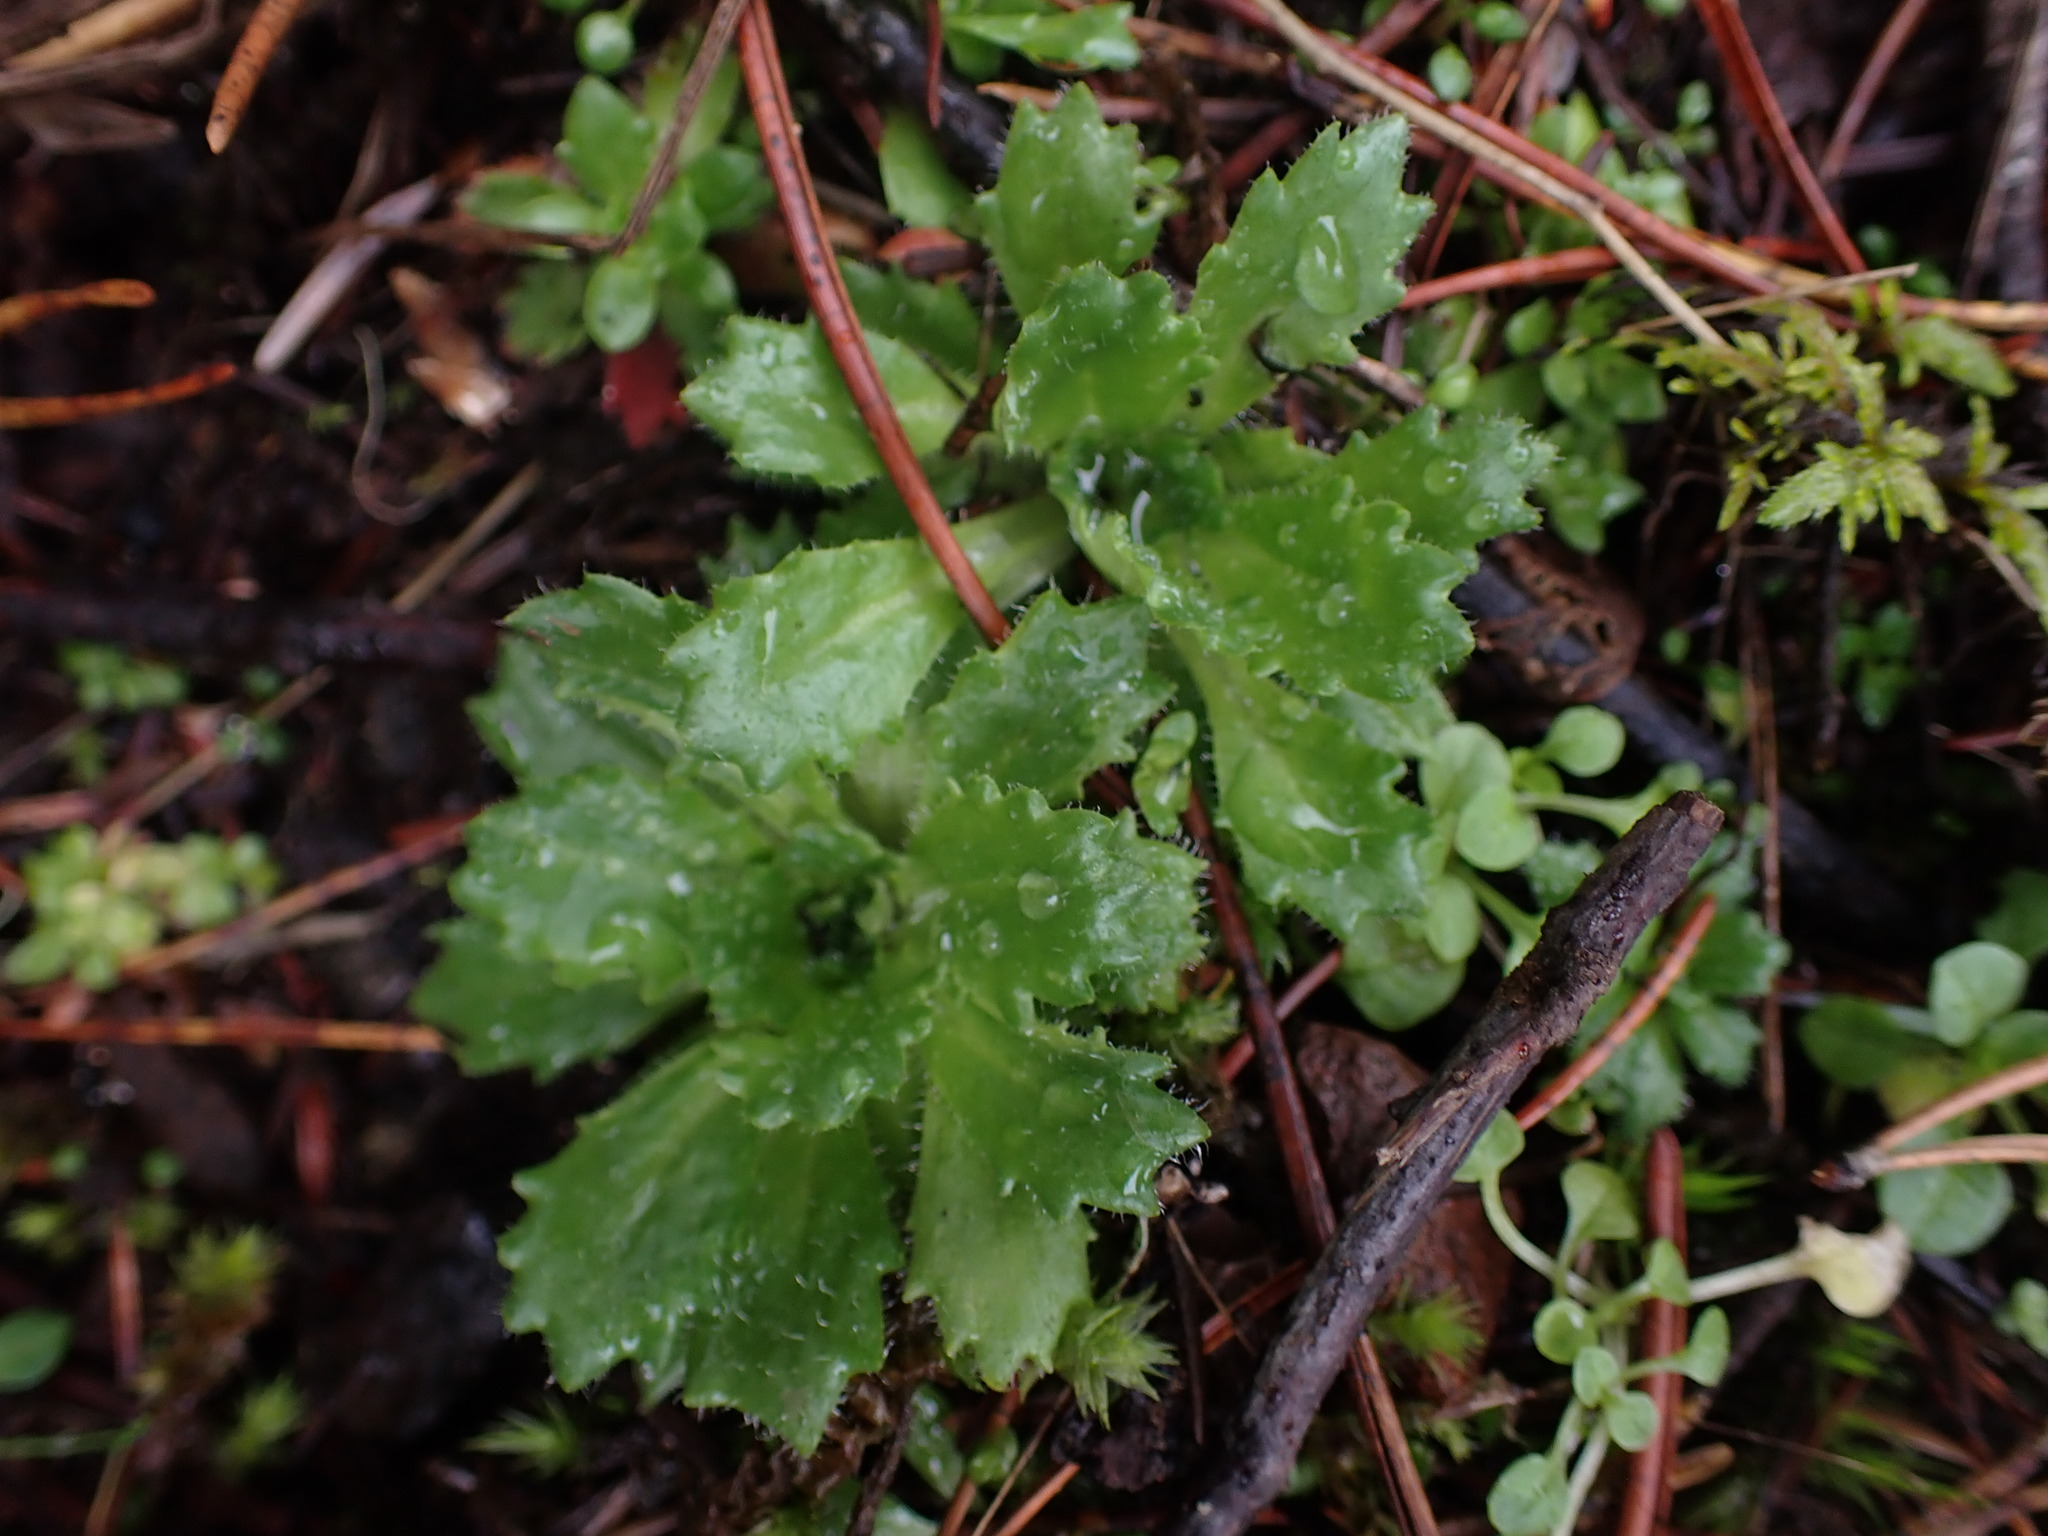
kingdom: Plantae
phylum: Tracheophyta
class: Magnoliopsida
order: Saxifragales
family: Saxifragaceae
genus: Micranthes
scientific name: Micranthes ferruginea
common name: Rusty saxifrage
